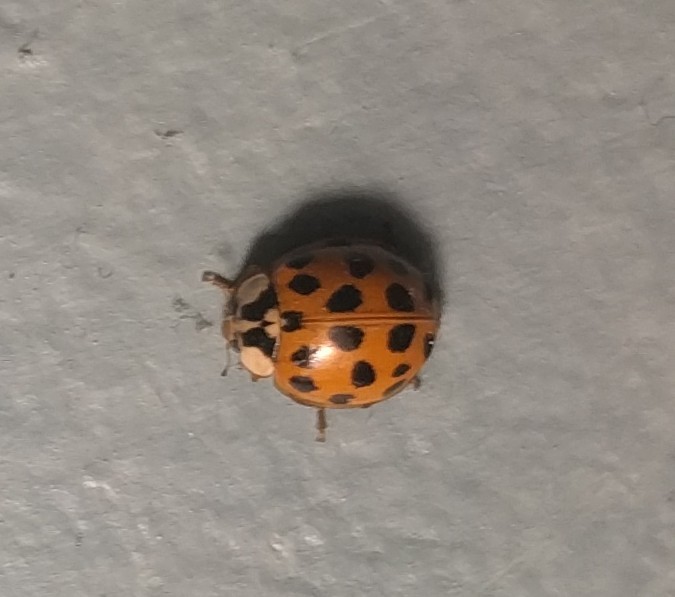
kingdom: Animalia
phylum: Arthropoda
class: Insecta
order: Coleoptera
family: Coccinellidae
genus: Harmonia
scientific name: Harmonia axyridis
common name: Harlequin ladybird
